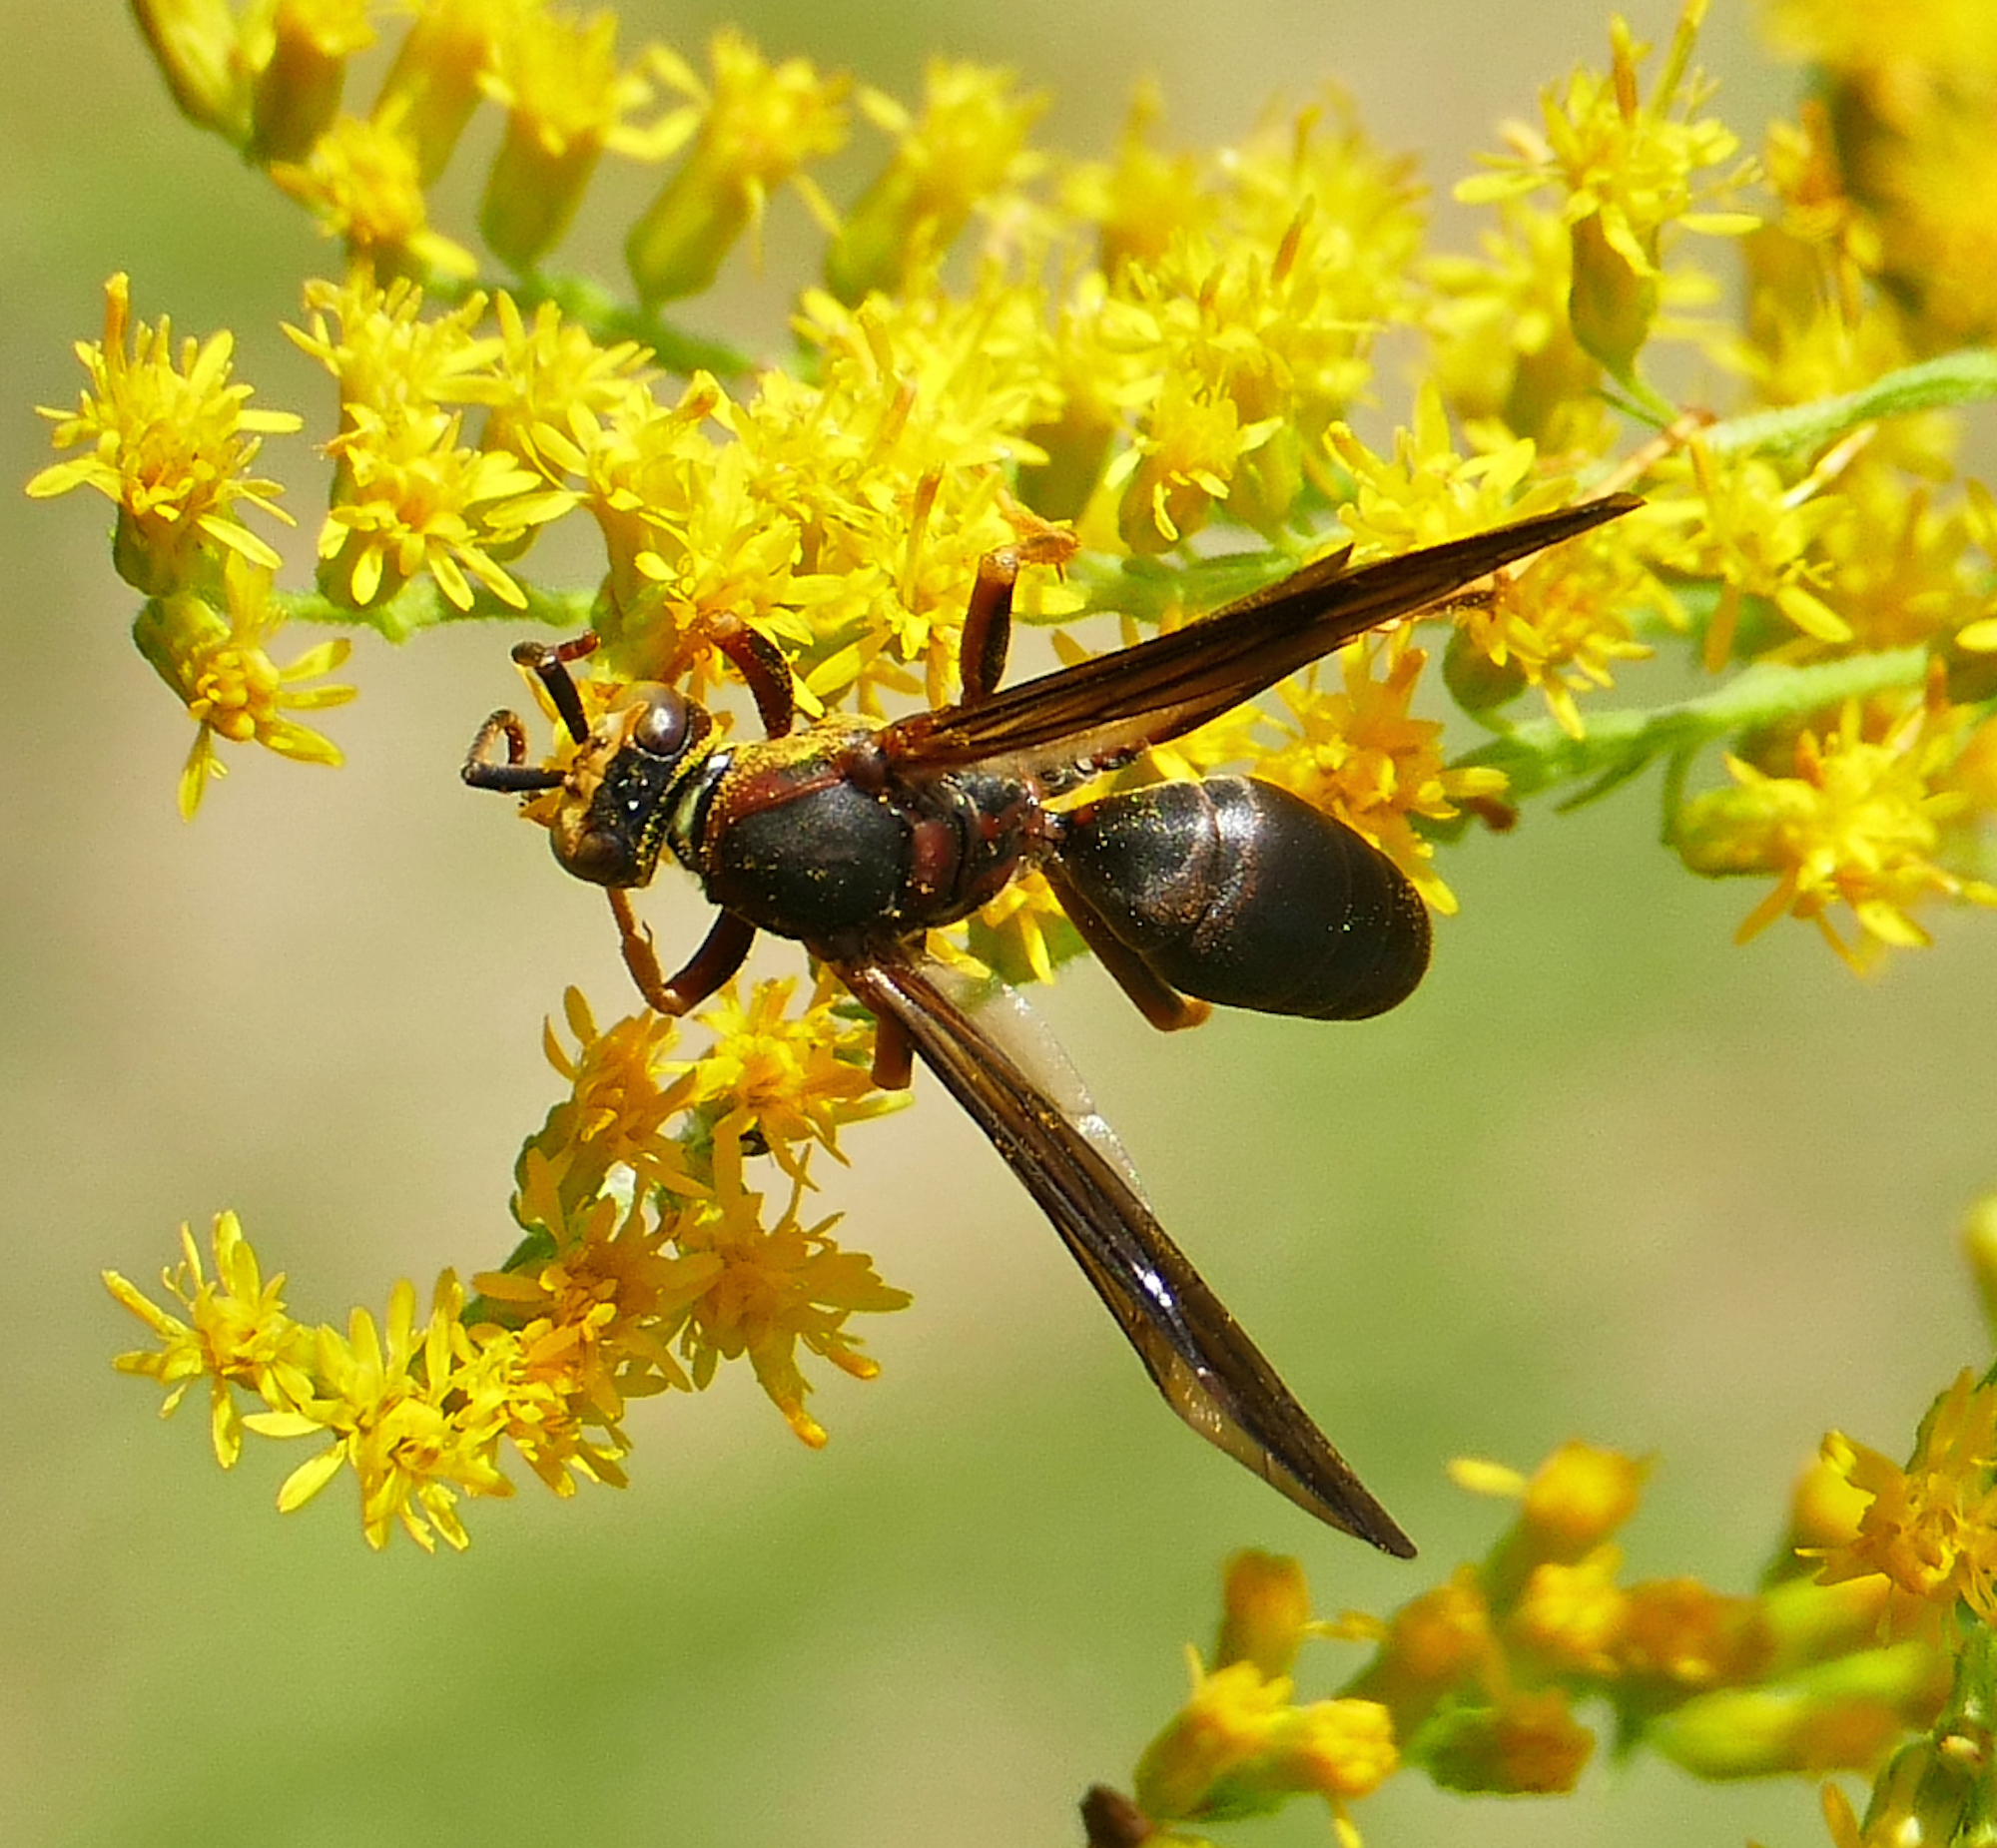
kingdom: Animalia
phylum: Arthropoda
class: Insecta
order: Hymenoptera
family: Eumenidae
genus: Polistes
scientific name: Polistes metricus
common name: Metric paper wasp
